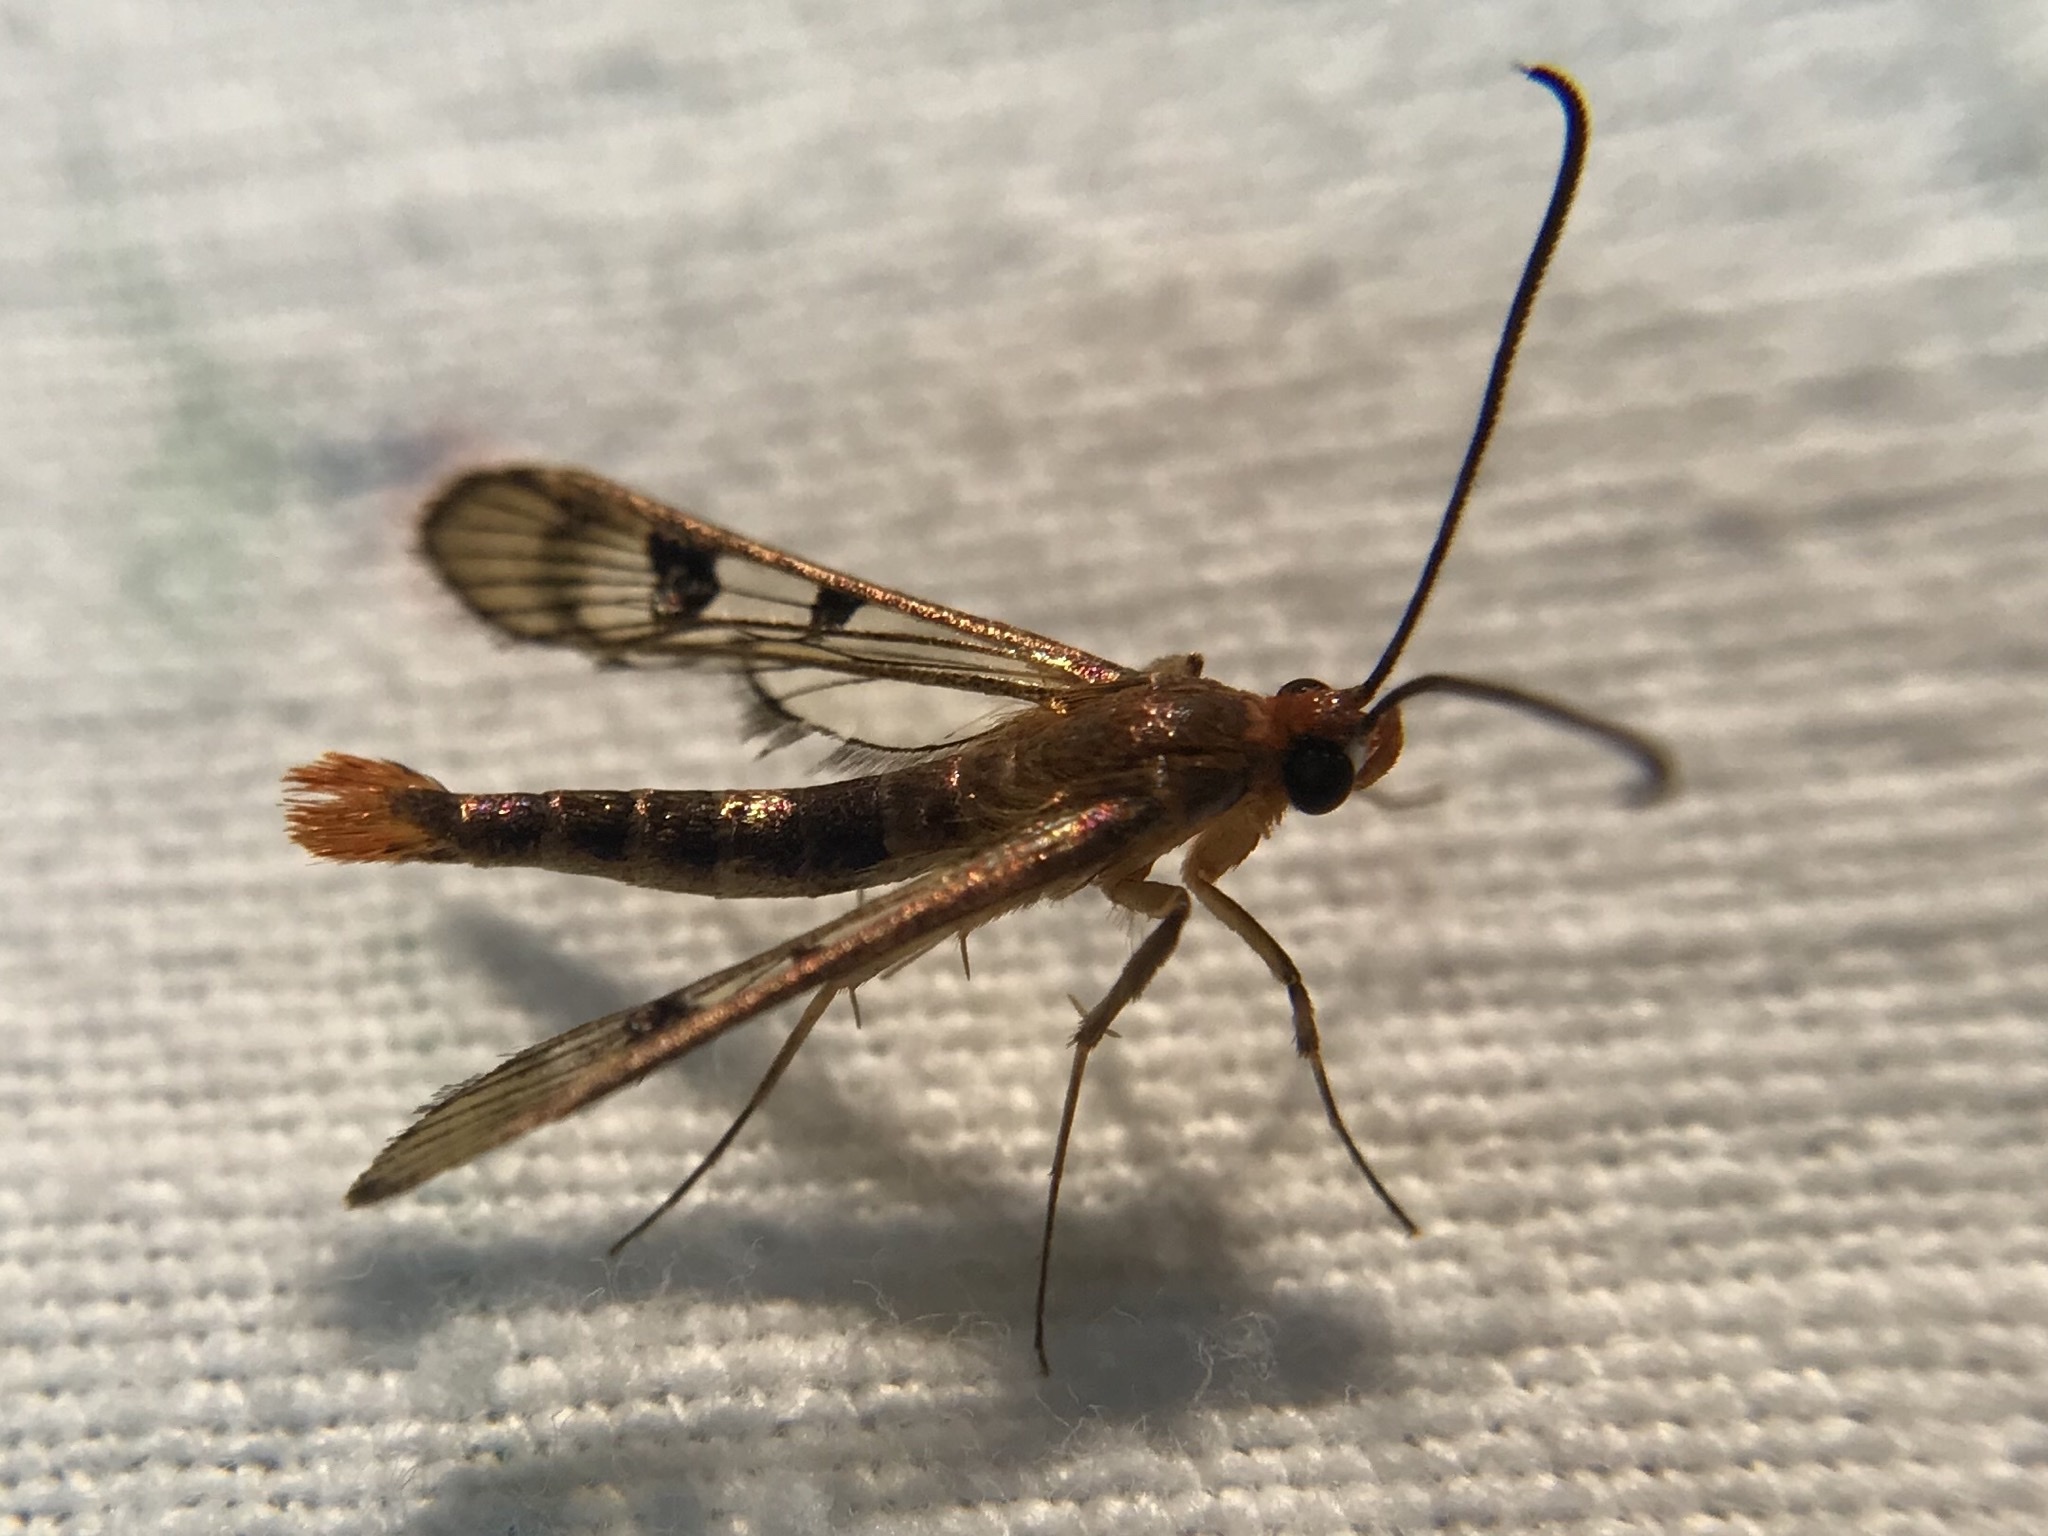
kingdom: Animalia
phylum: Arthropoda
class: Insecta
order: Lepidoptera
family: Sesiidae
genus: Synanthedon
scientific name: Synanthedon acerni
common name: Maple callus borer moth
